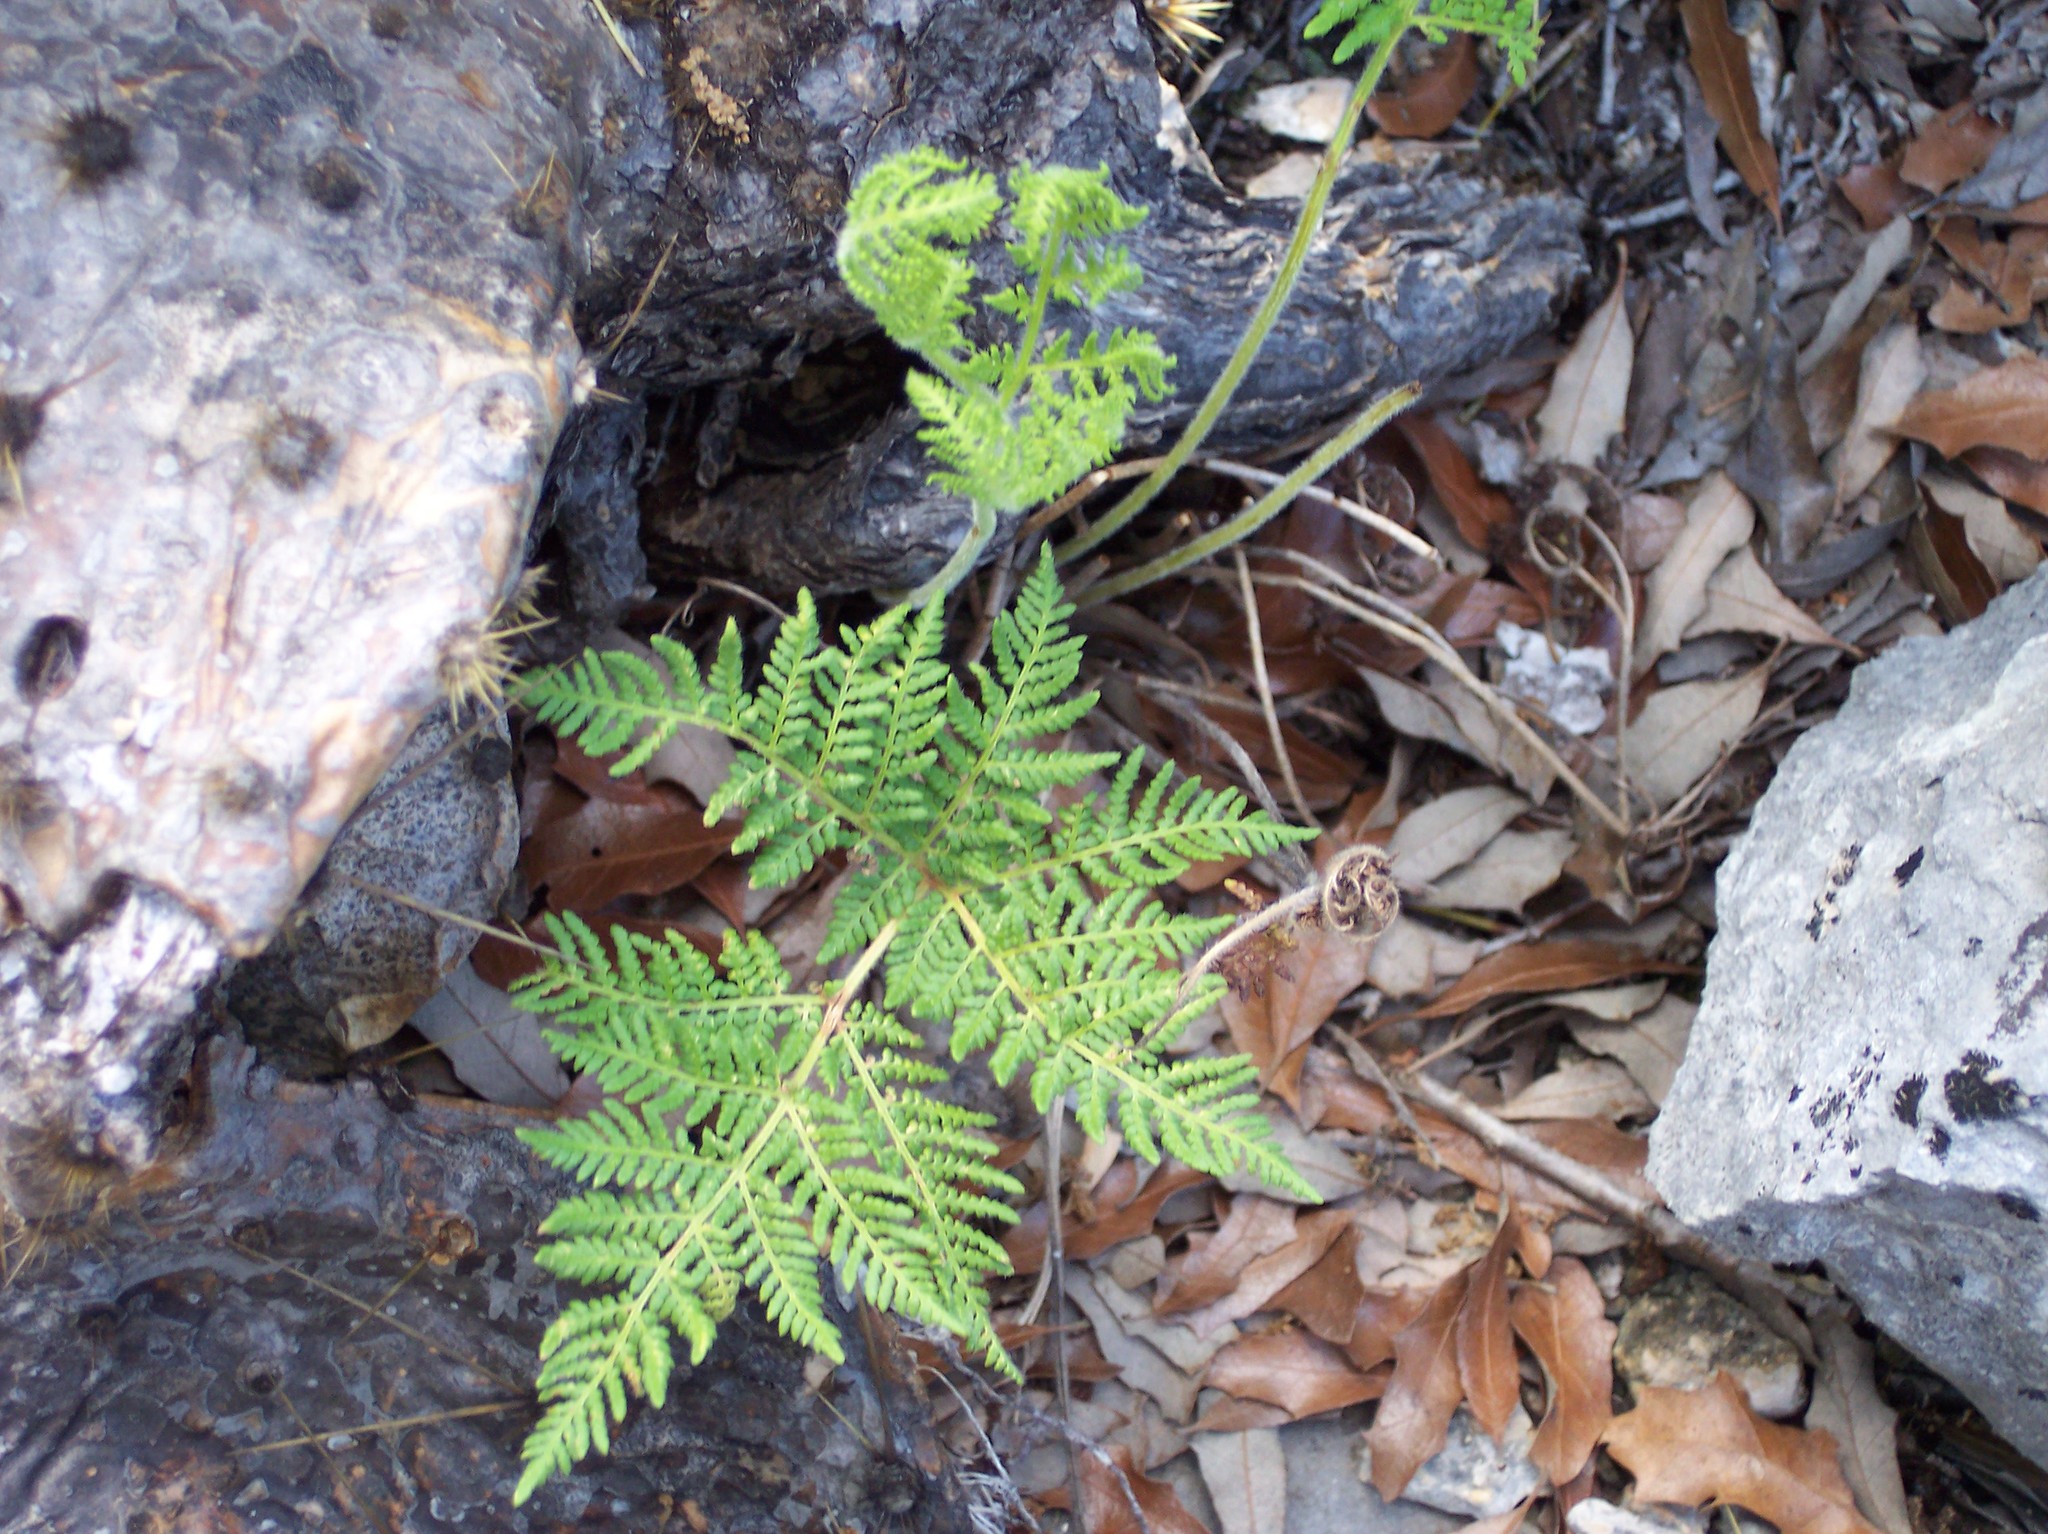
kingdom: Plantae
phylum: Tracheophyta
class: Polypodiopsida
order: Polypodiales
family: Pteridaceae
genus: Cheilanthes
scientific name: Cheilanthes leucopoda
